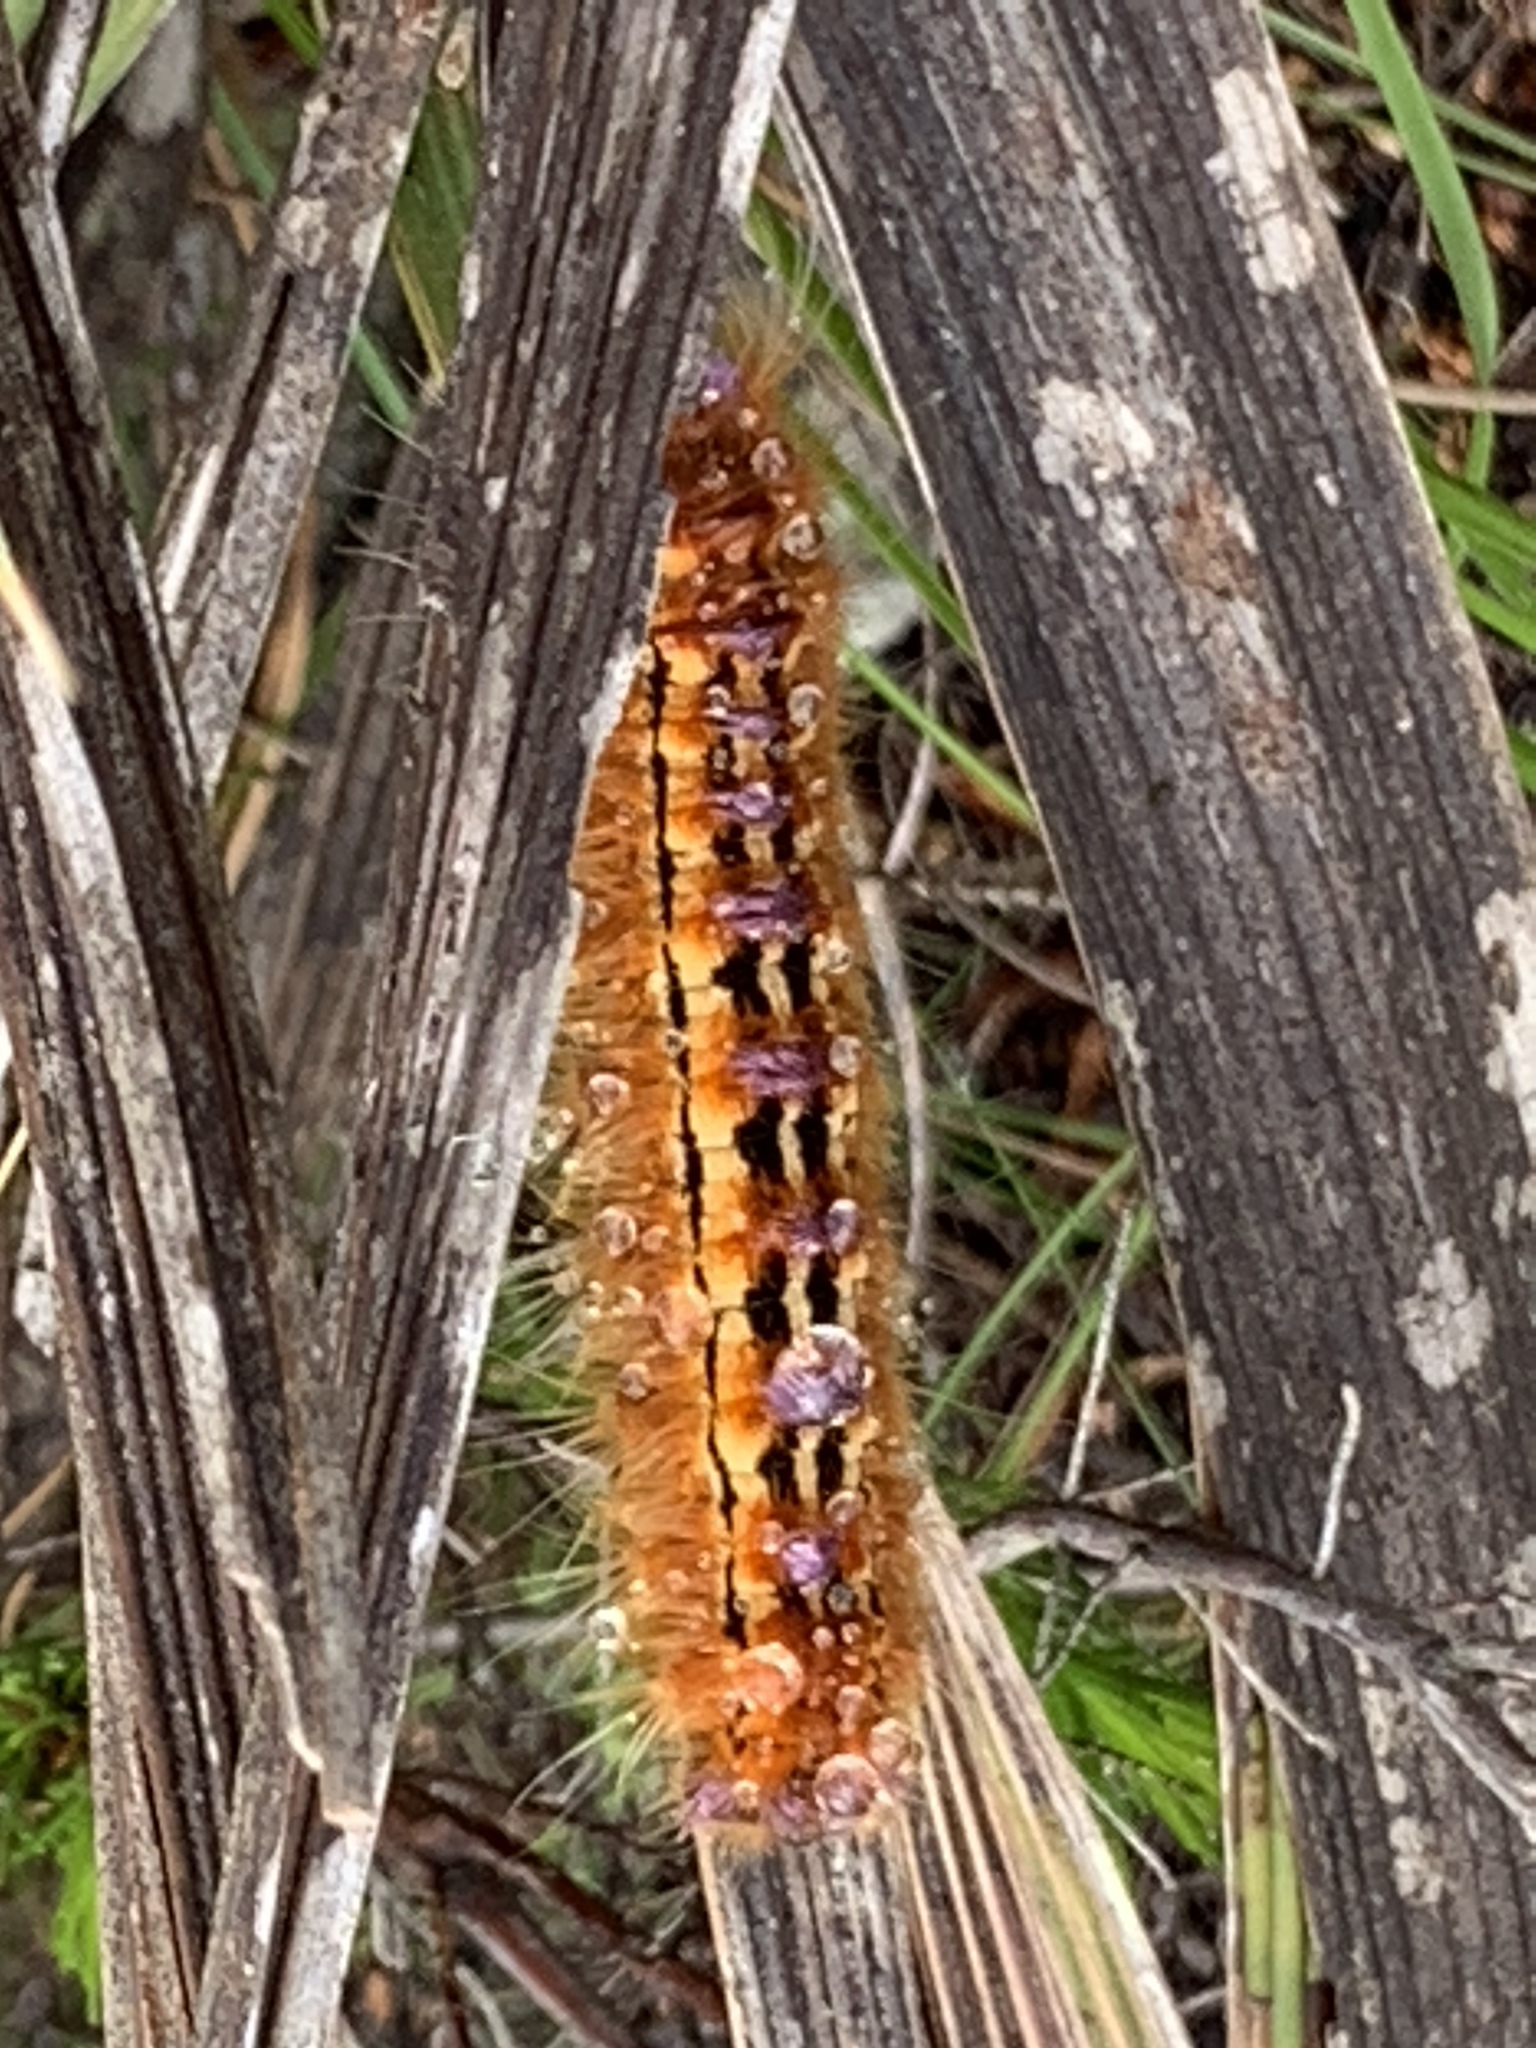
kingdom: Animalia
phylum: Arthropoda
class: Insecta
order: Lepidoptera
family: Lasiocampidae
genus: Eutricha
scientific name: Eutricha bifascia
